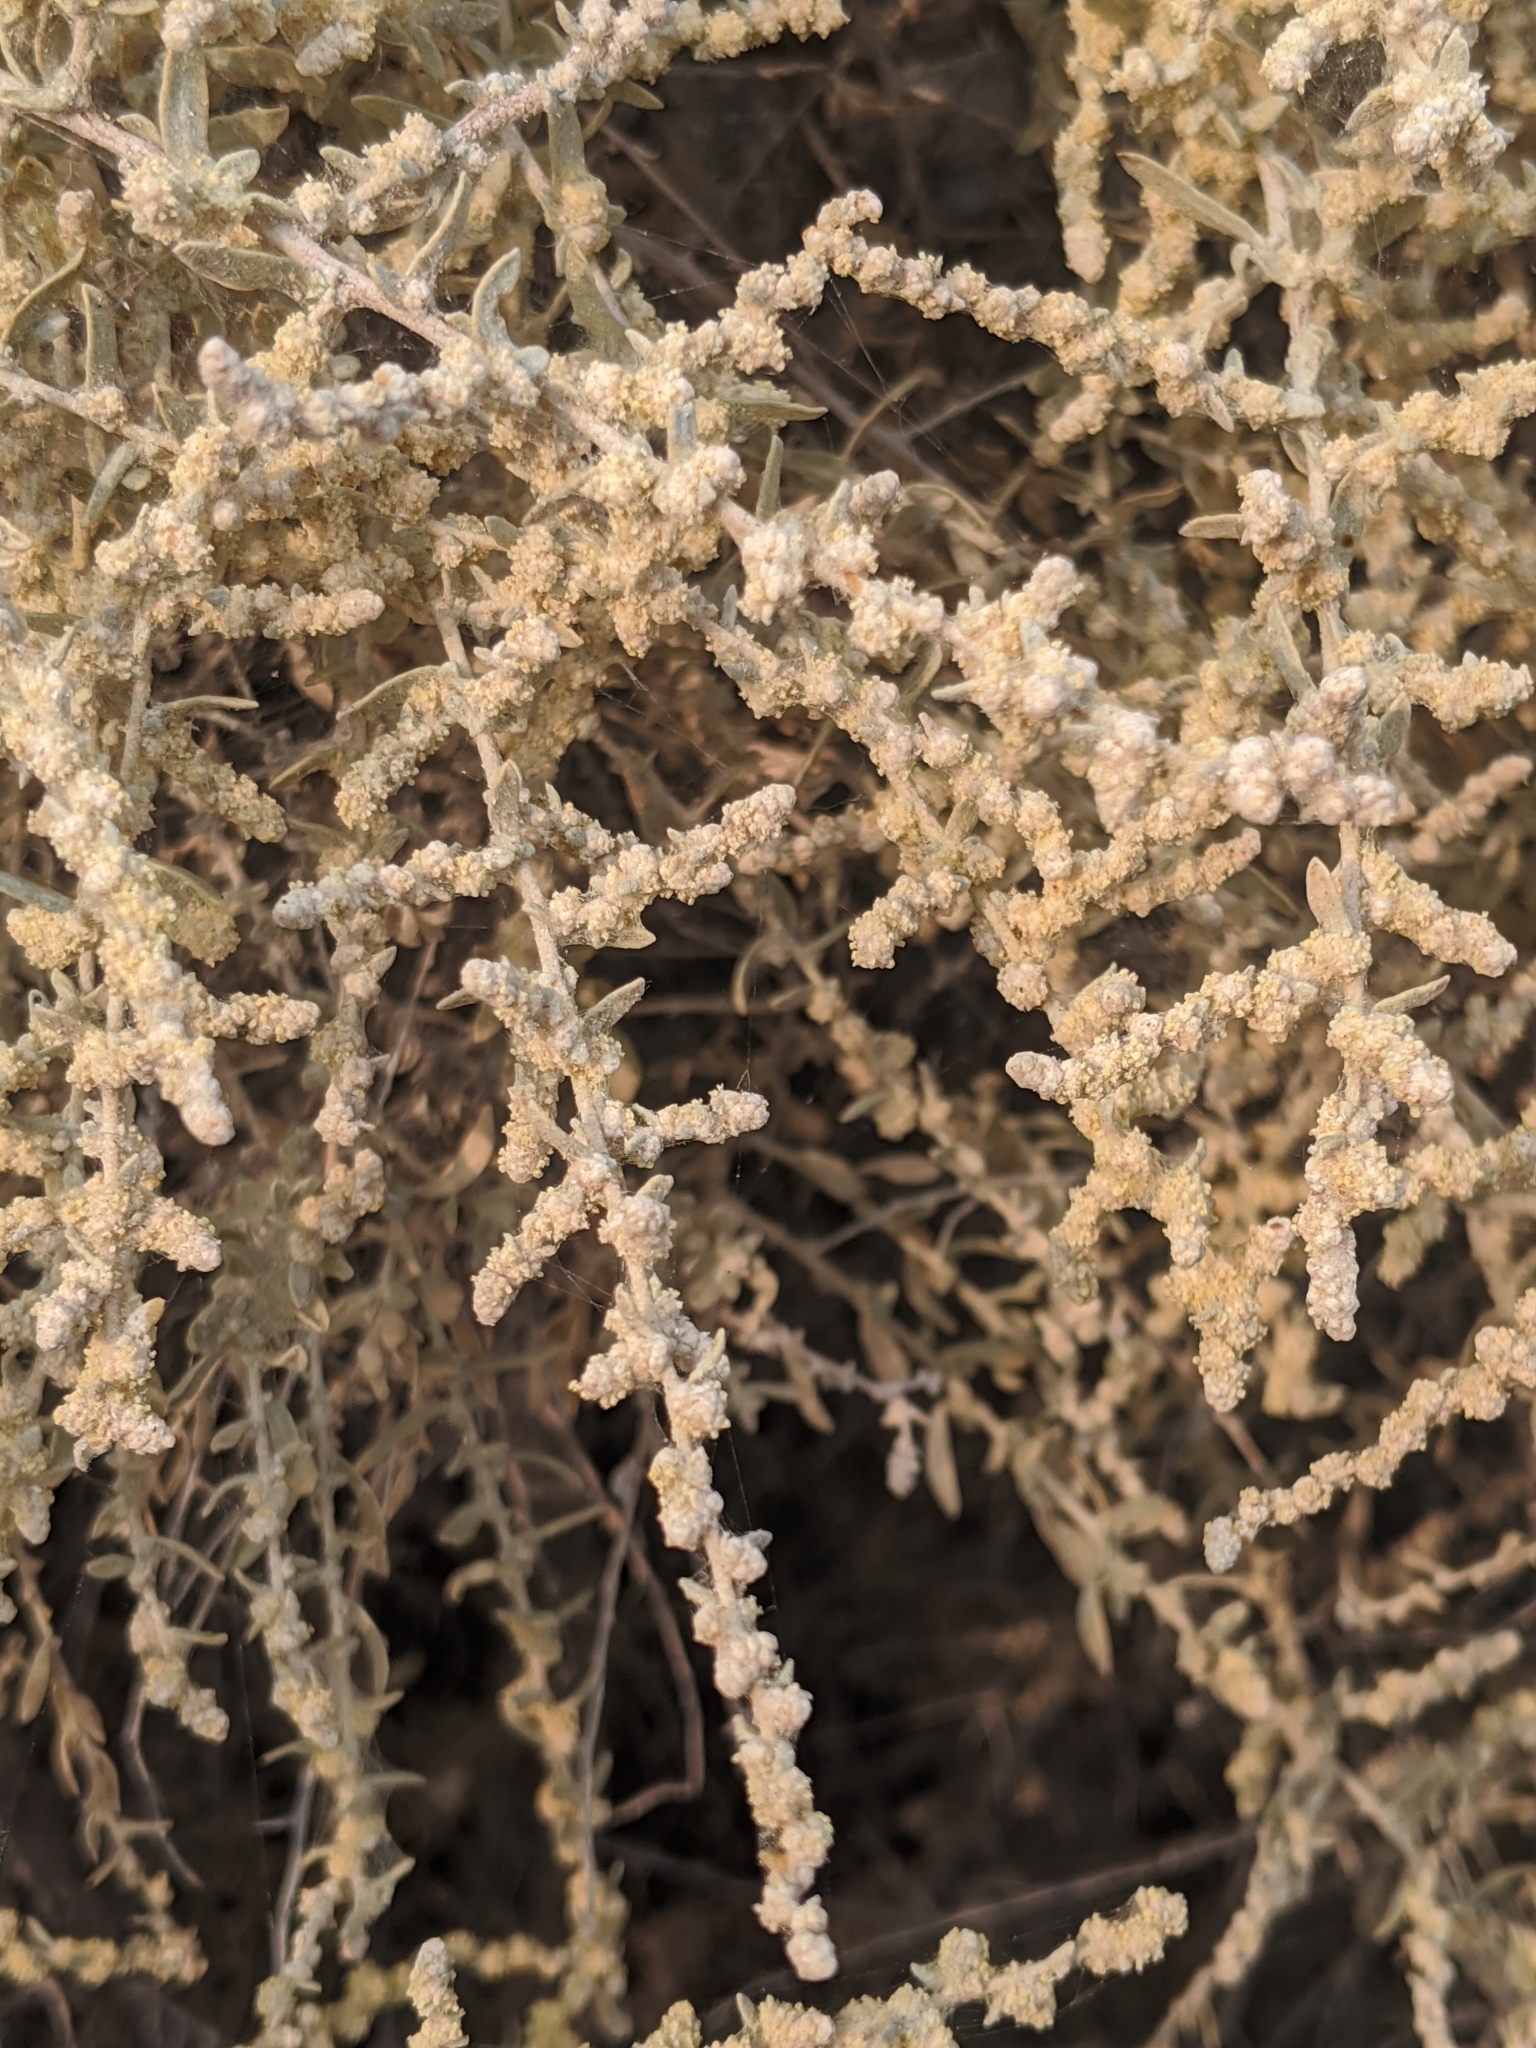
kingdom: Plantae
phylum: Tracheophyta
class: Magnoliopsida
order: Caryophyllales
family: Amaranthaceae
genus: Atriplex
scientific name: Atriplex polycarpa
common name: Desert saltbush
